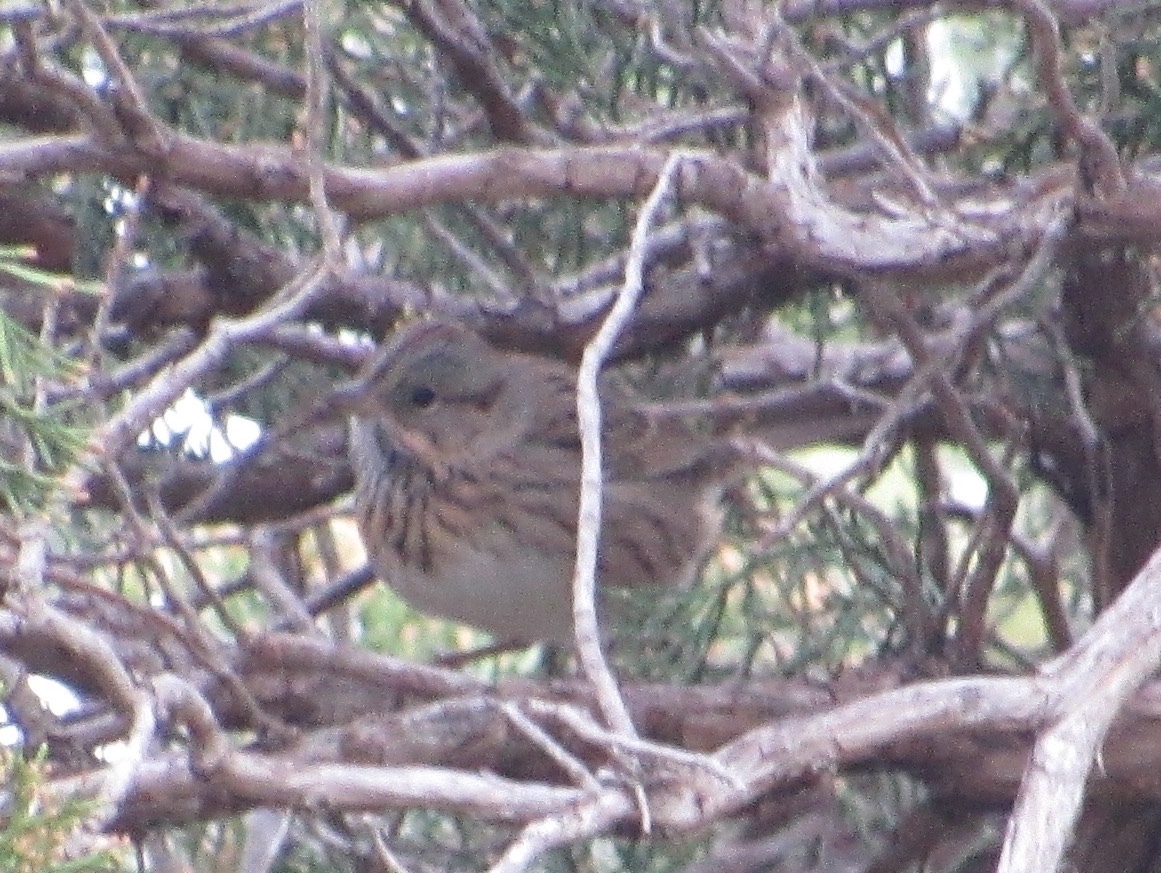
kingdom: Animalia
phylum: Chordata
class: Aves
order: Passeriformes
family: Passerellidae
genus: Melospiza
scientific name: Melospiza lincolnii
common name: Lincoln's sparrow
